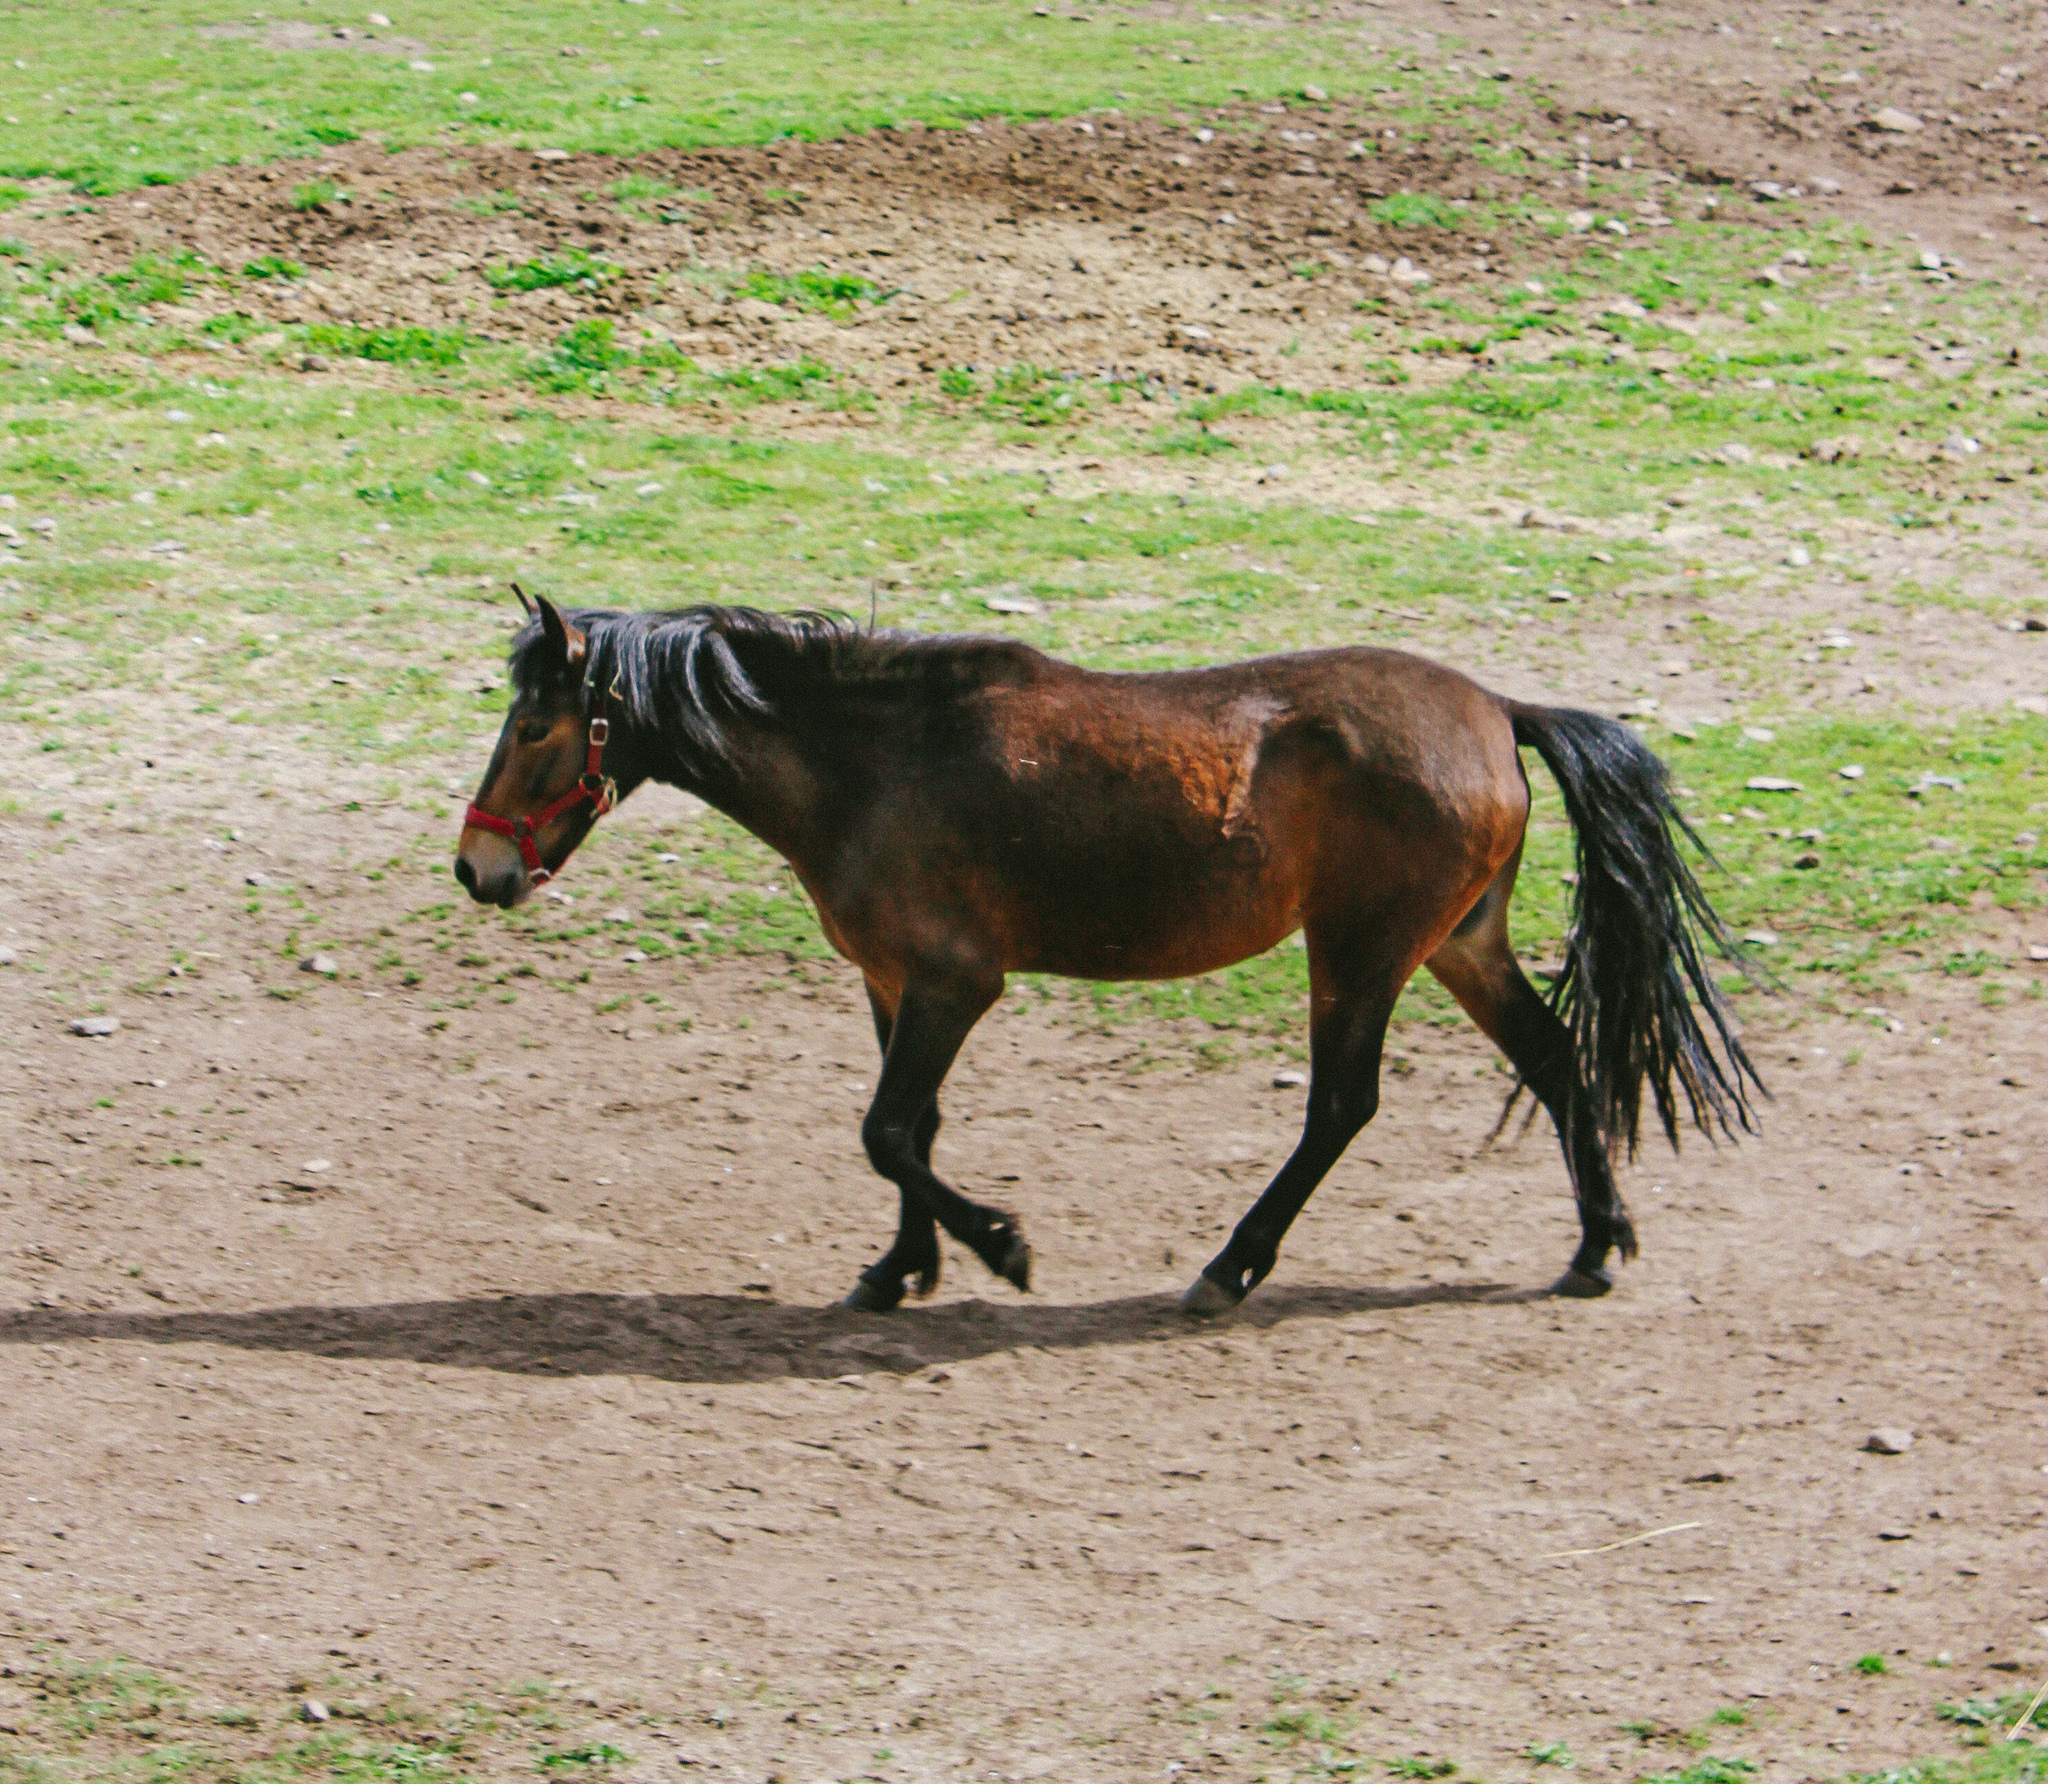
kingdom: Animalia
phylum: Chordata
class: Mammalia
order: Perissodactyla
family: Equidae
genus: Equus
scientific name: Equus caballus
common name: Horse
